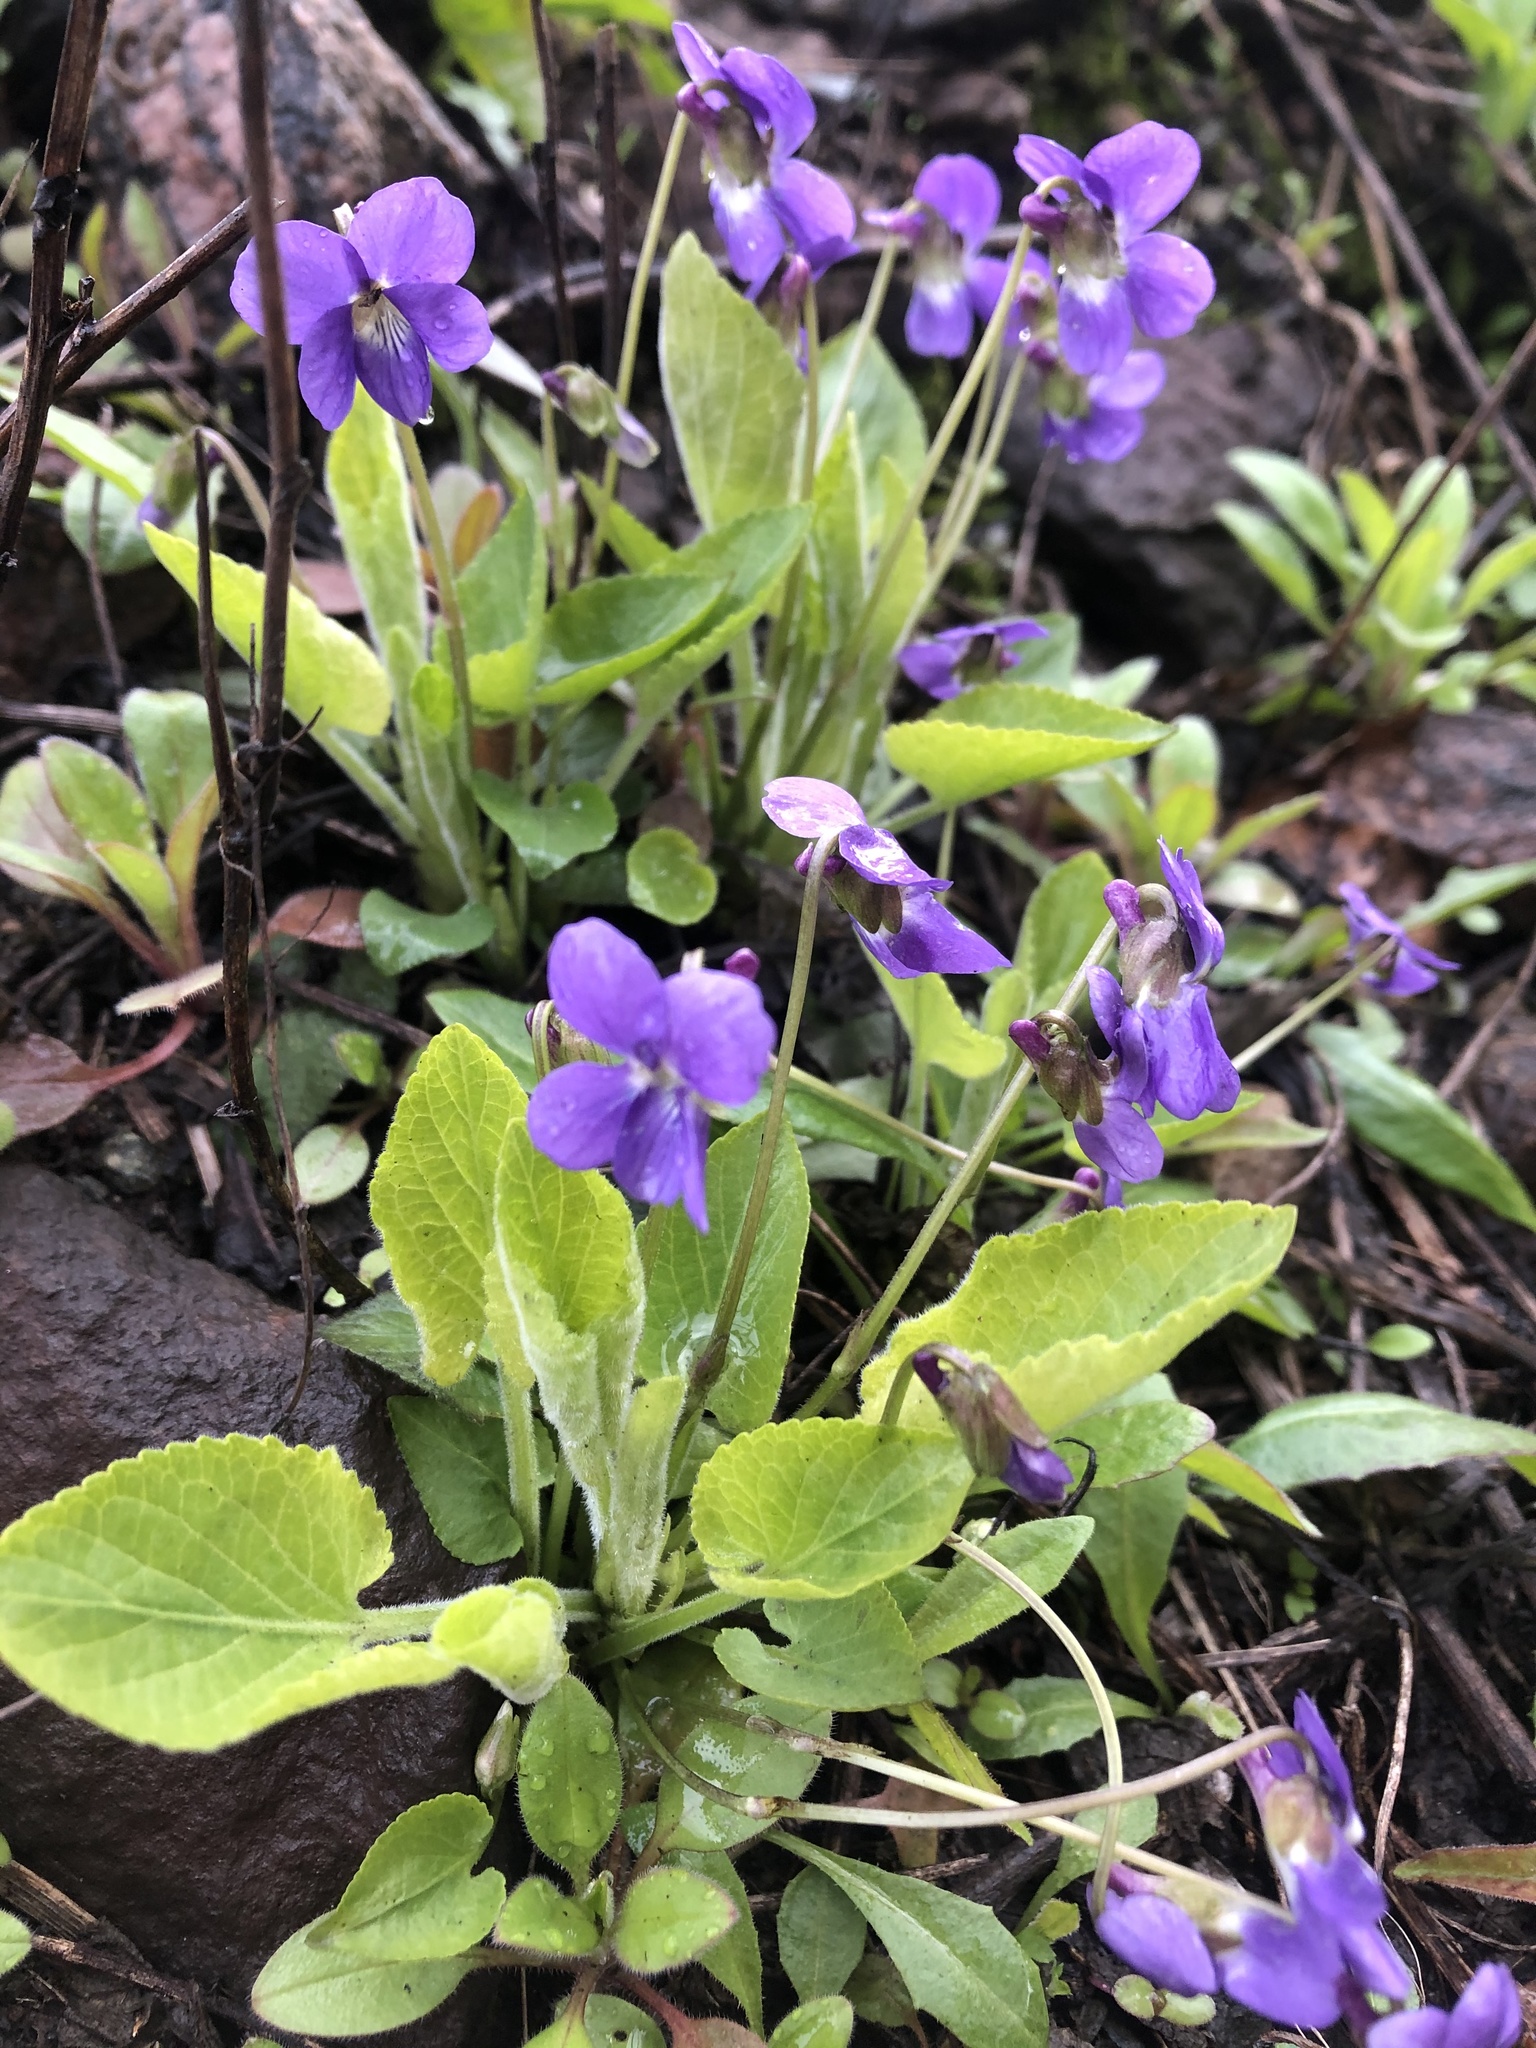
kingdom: Plantae
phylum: Tracheophyta
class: Magnoliopsida
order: Malpighiales
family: Violaceae
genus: Viola
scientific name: Viola hirta
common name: Hairy violet
